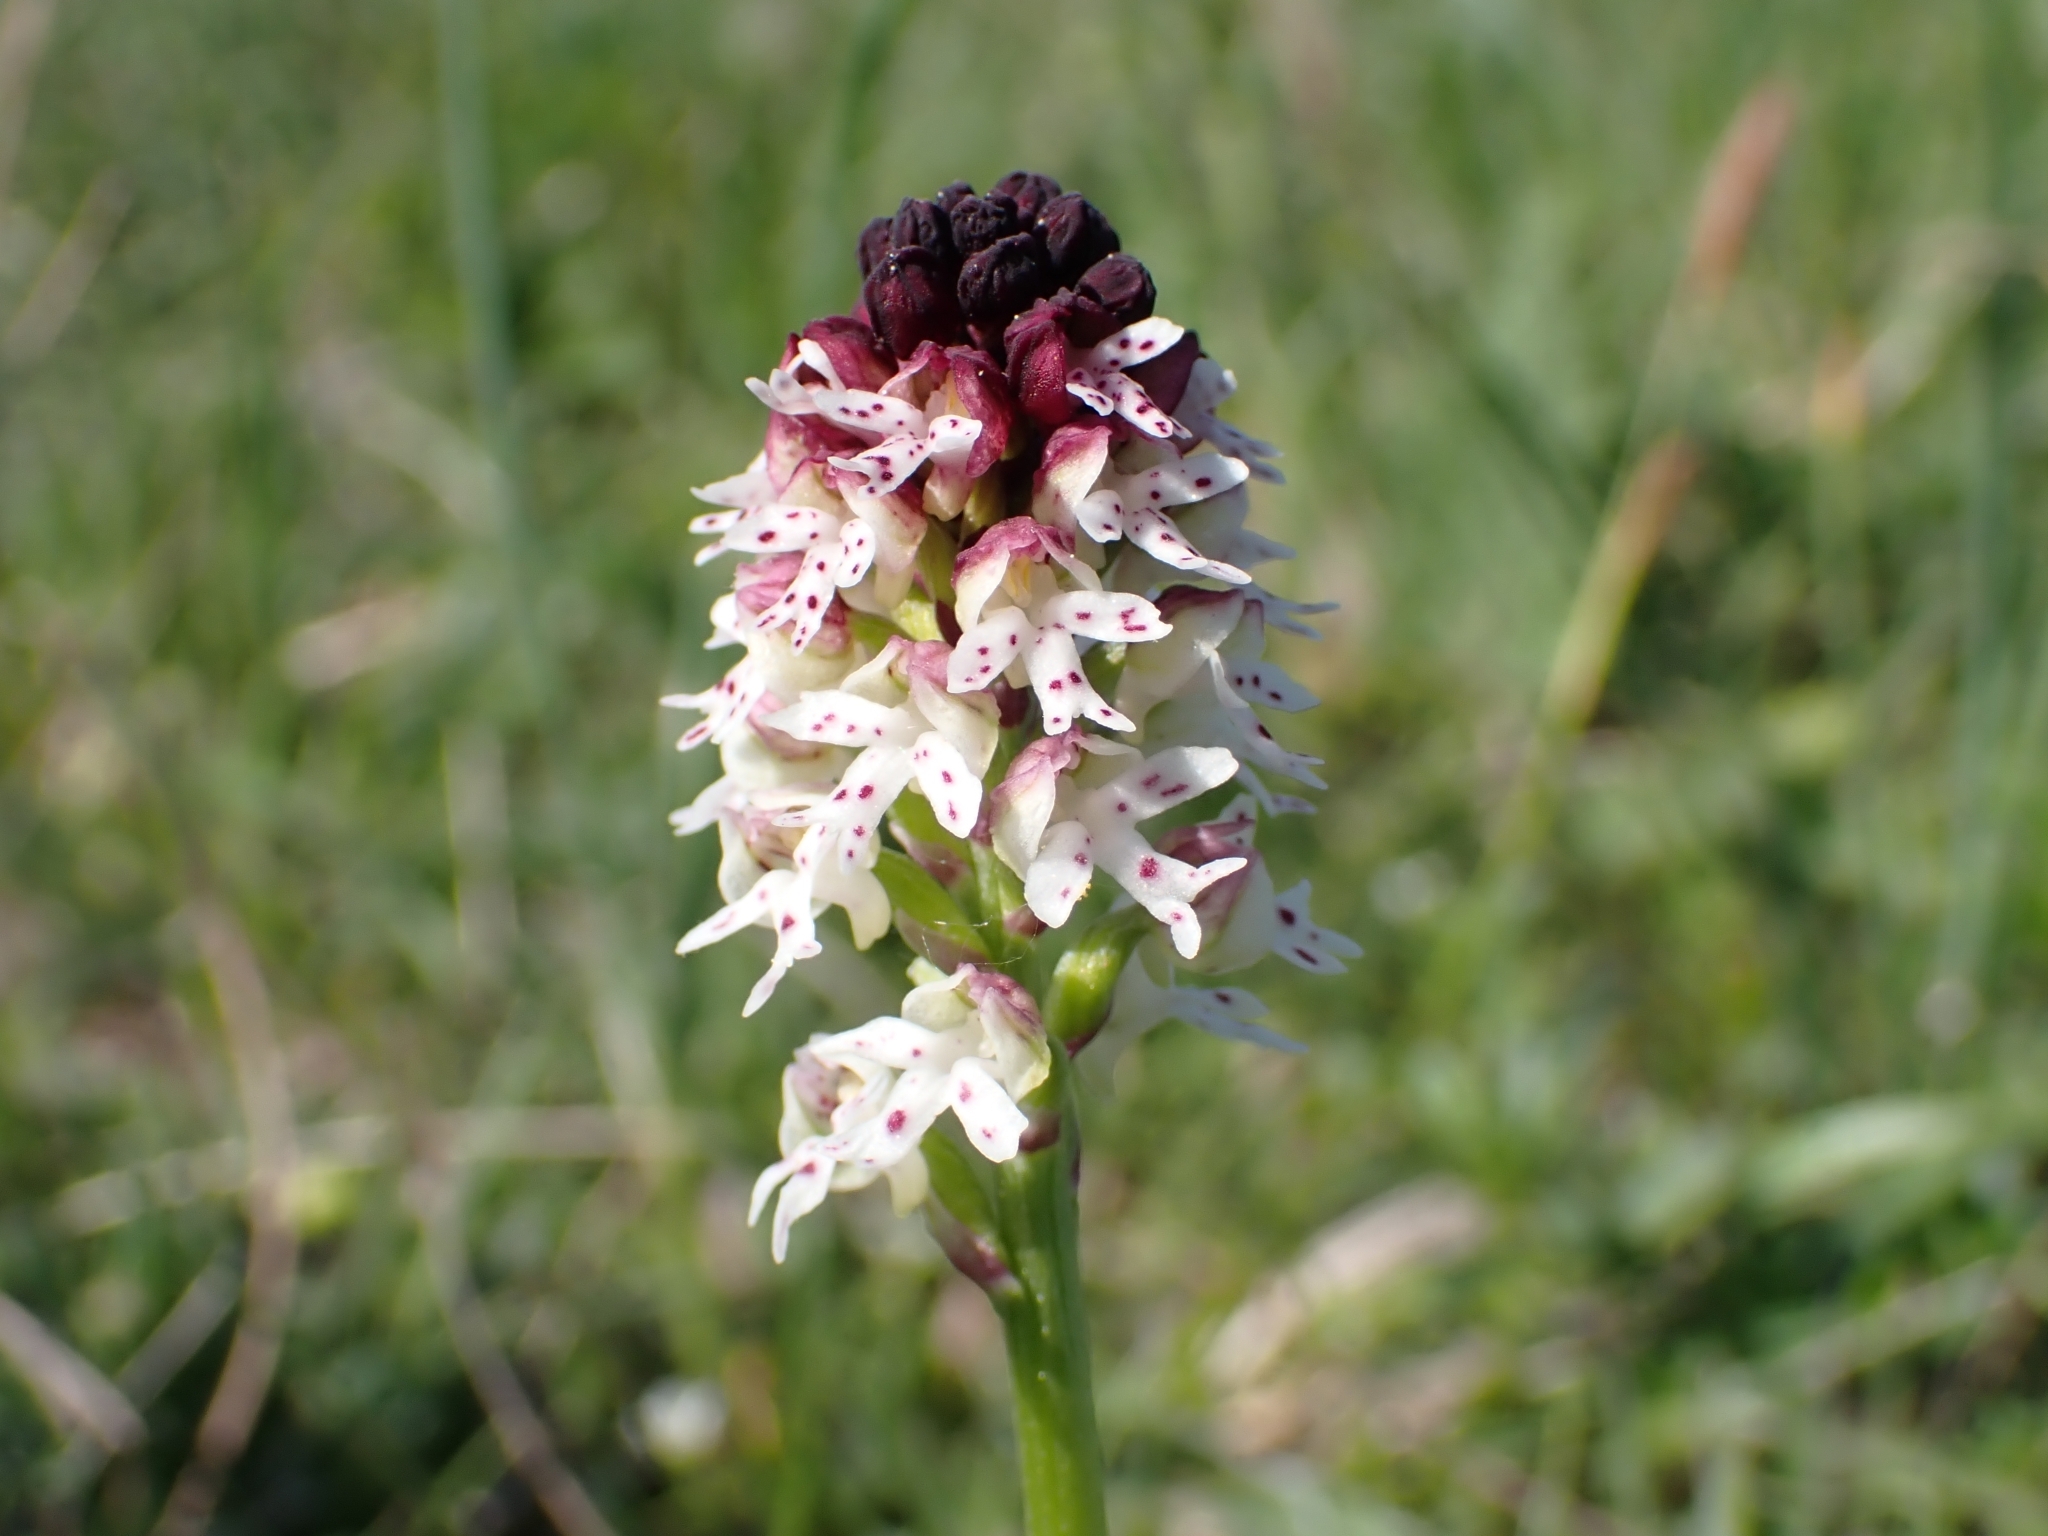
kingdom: Plantae
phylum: Tracheophyta
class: Liliopsida
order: Asparagales
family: Orchidaceae
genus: Neotinea
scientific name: Neotinea ustulata
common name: Burnt orchid
